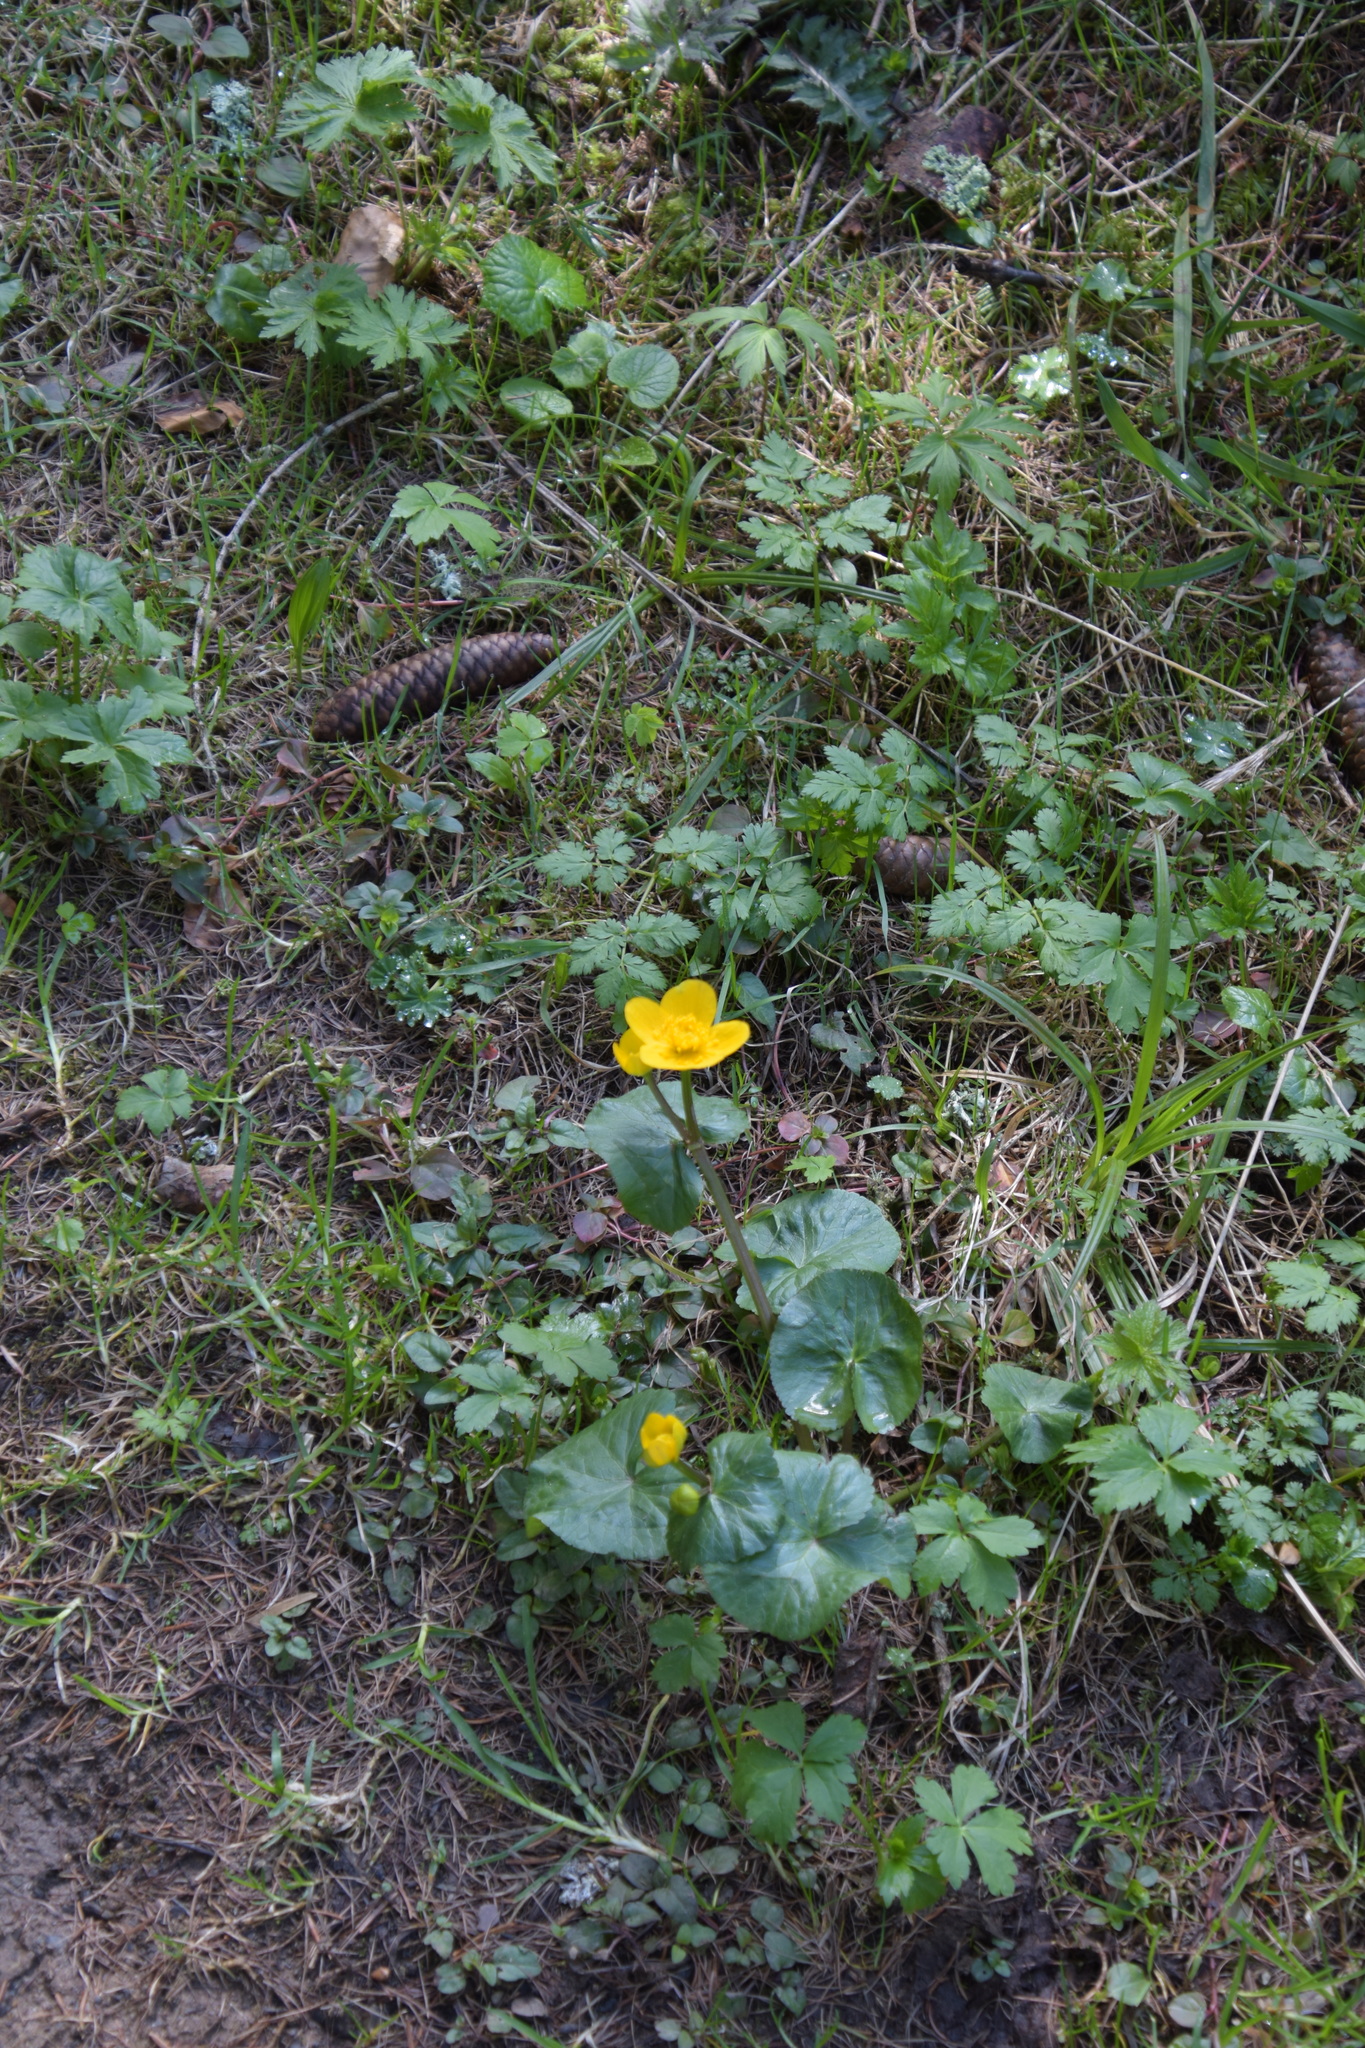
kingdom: Plantae
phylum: Tracheophyta
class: Magnoliopsida
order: Ranunculales
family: Ranunculaceae
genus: Caltha
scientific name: Caltha palustris
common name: Marsh marigold
